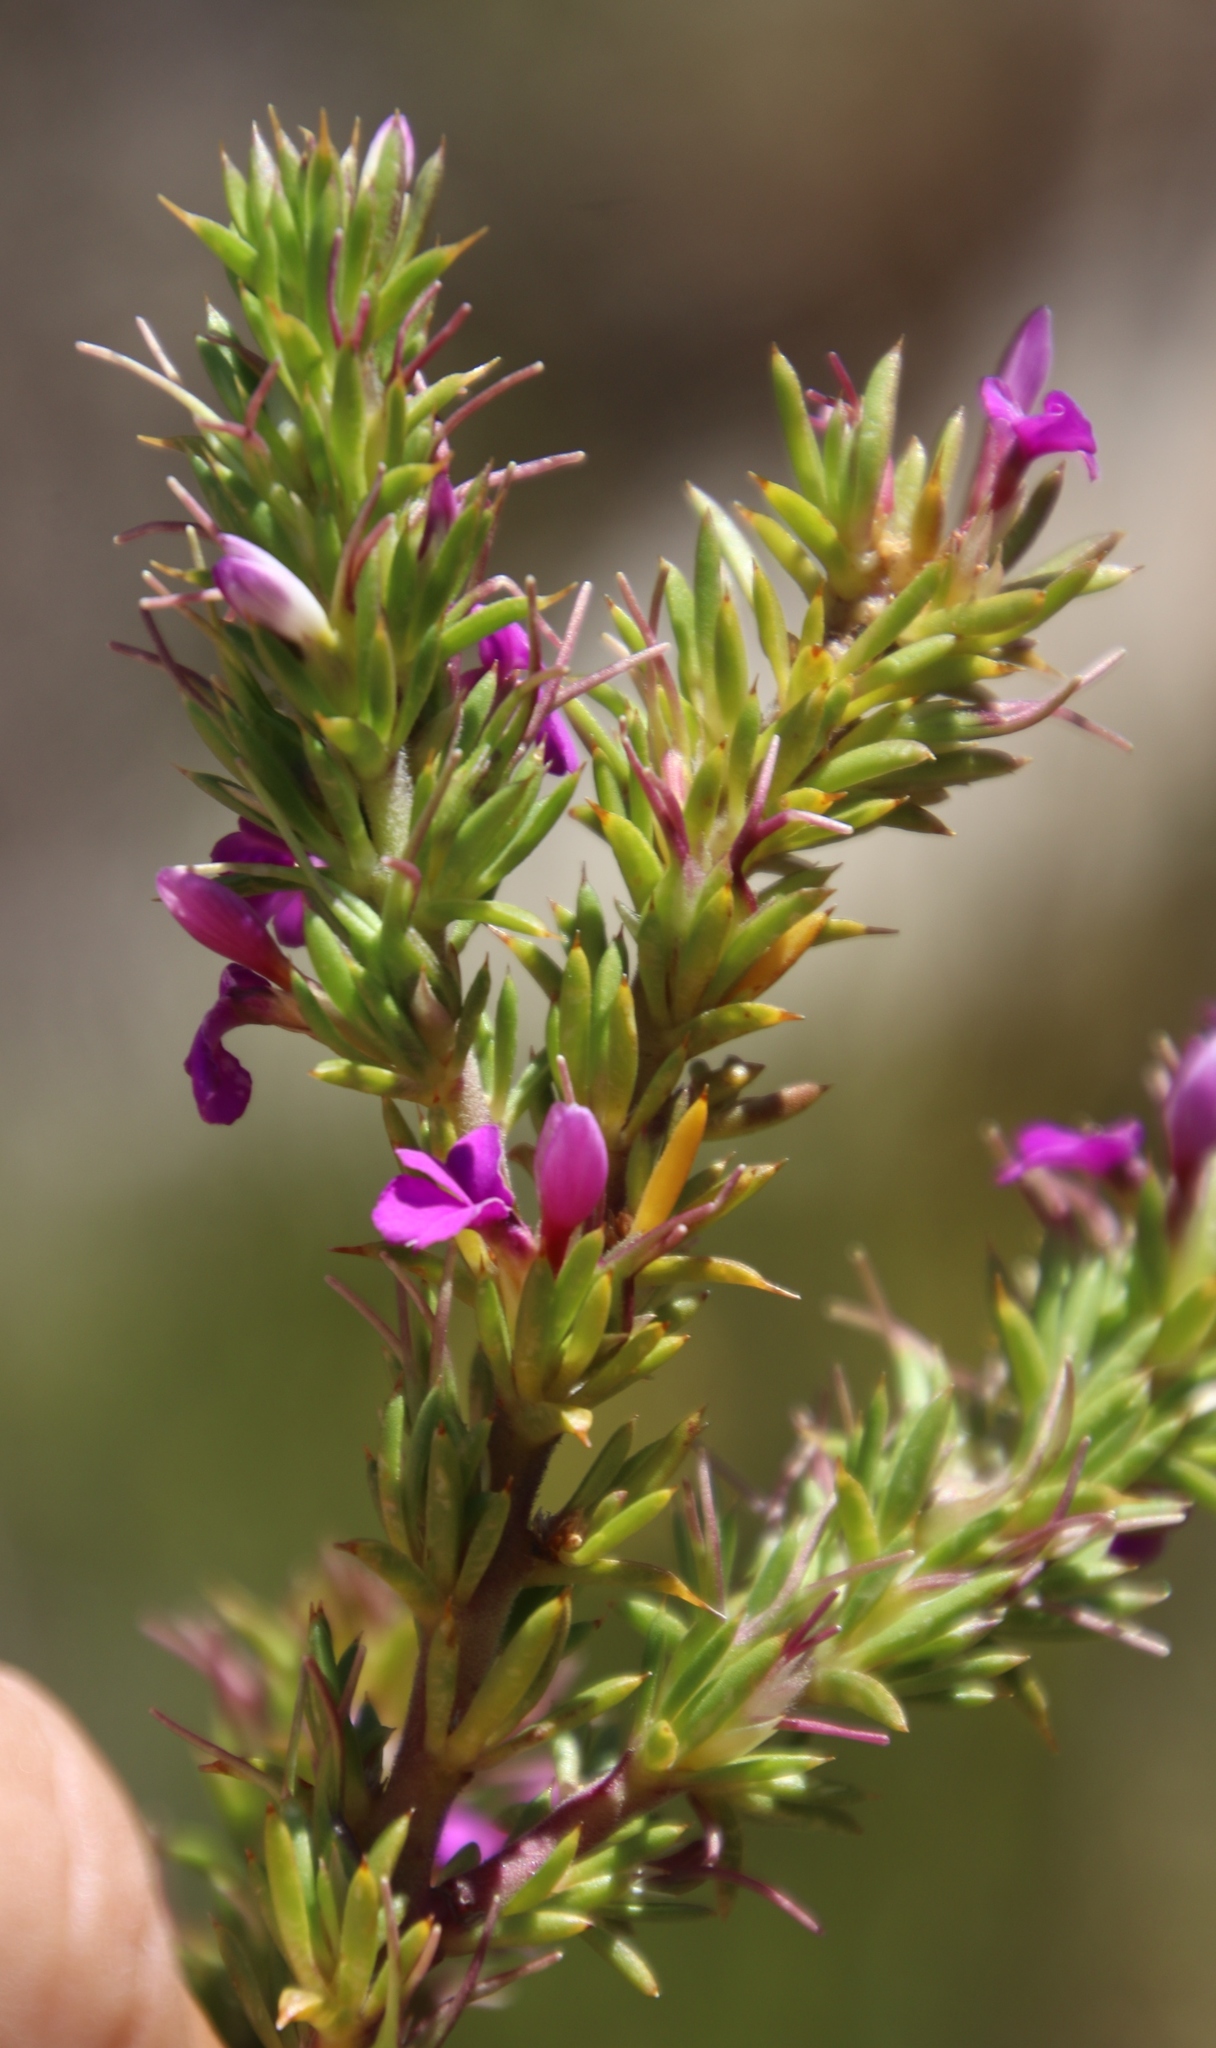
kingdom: Plantae
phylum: Tracheophyta
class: Magnoliopsida
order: Fabales
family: Polygalaceae
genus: Muraltia
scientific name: Muraltia heisteria
